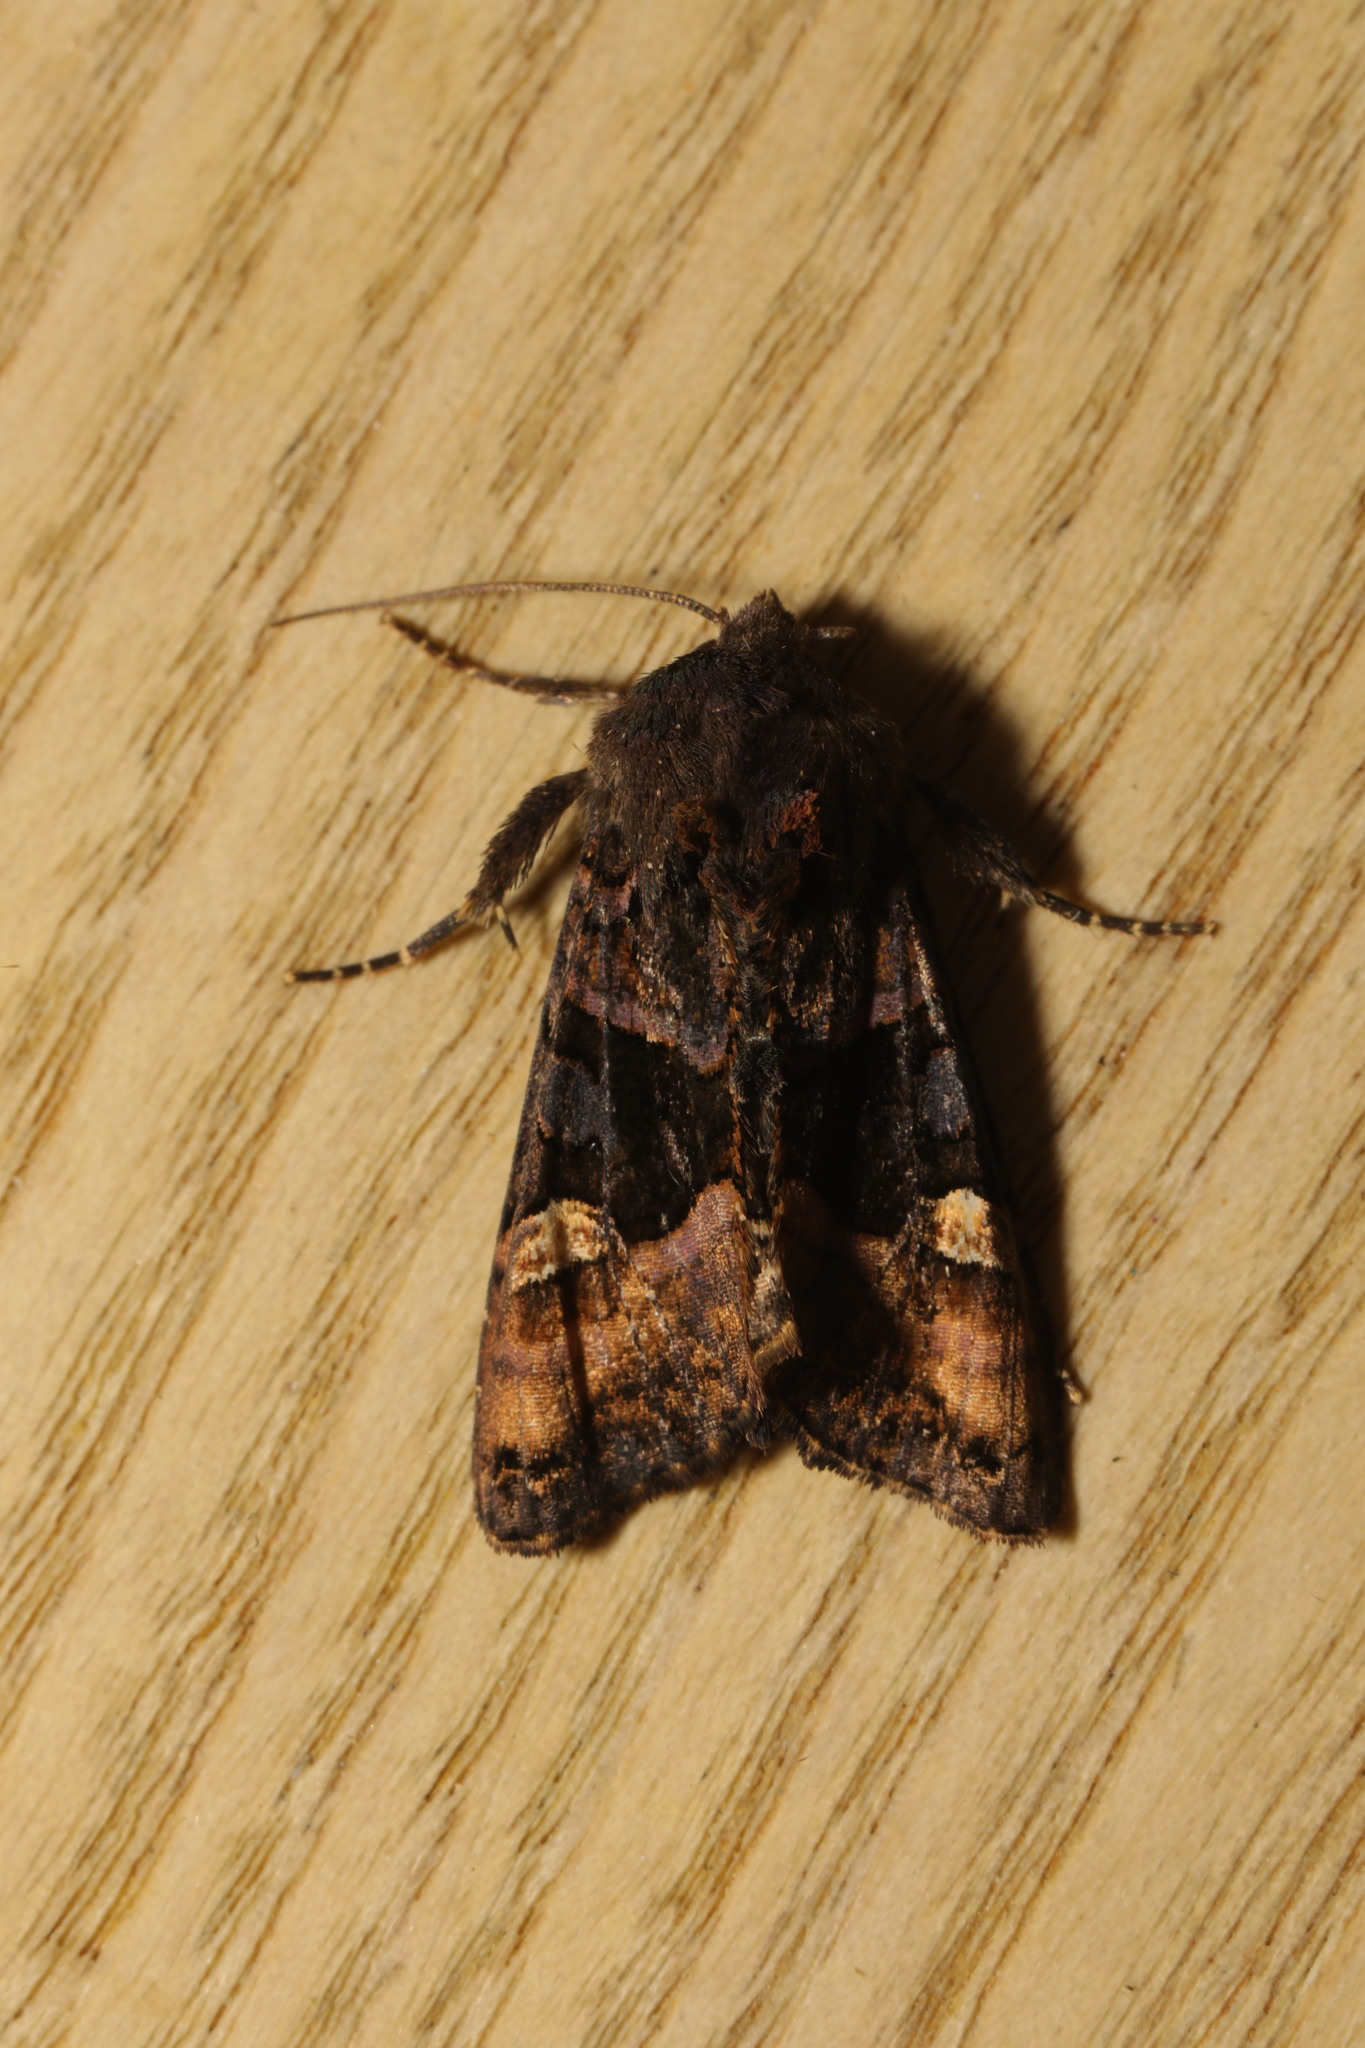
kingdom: Animalia
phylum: Arthropoda
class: Insecta
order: Lepidoptera
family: Noctuidae
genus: Euplexia
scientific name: Euplexia lucipara
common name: Small angle shades
